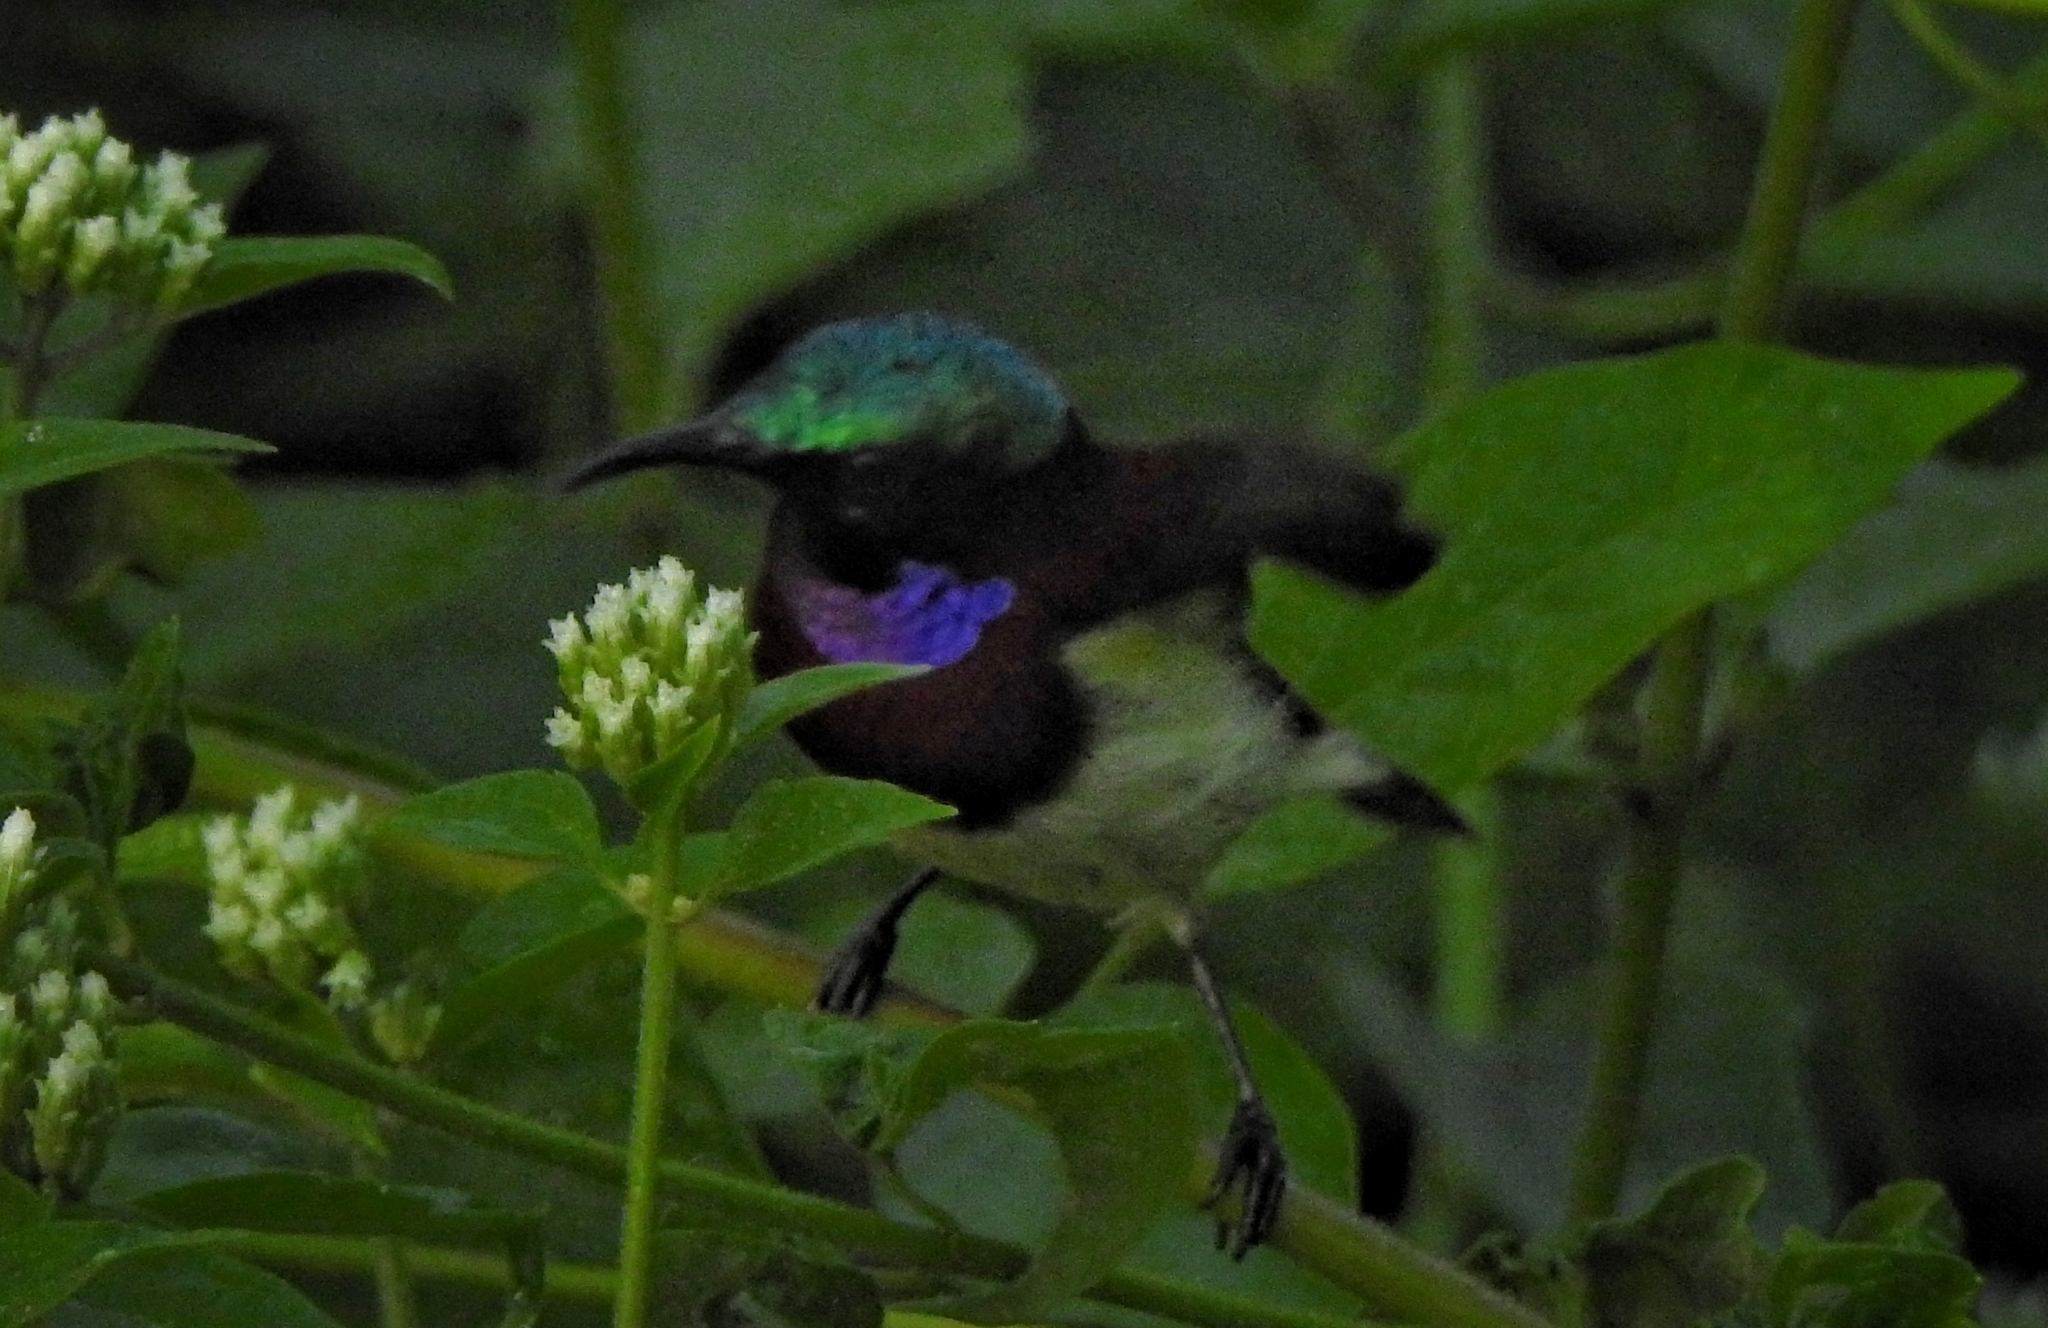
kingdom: Animalia
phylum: Chordata
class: Aves
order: Passeriformes
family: Nectariniidae
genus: Leptocoma
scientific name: Leptocoma minima
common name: Crimson-backed sunbird
